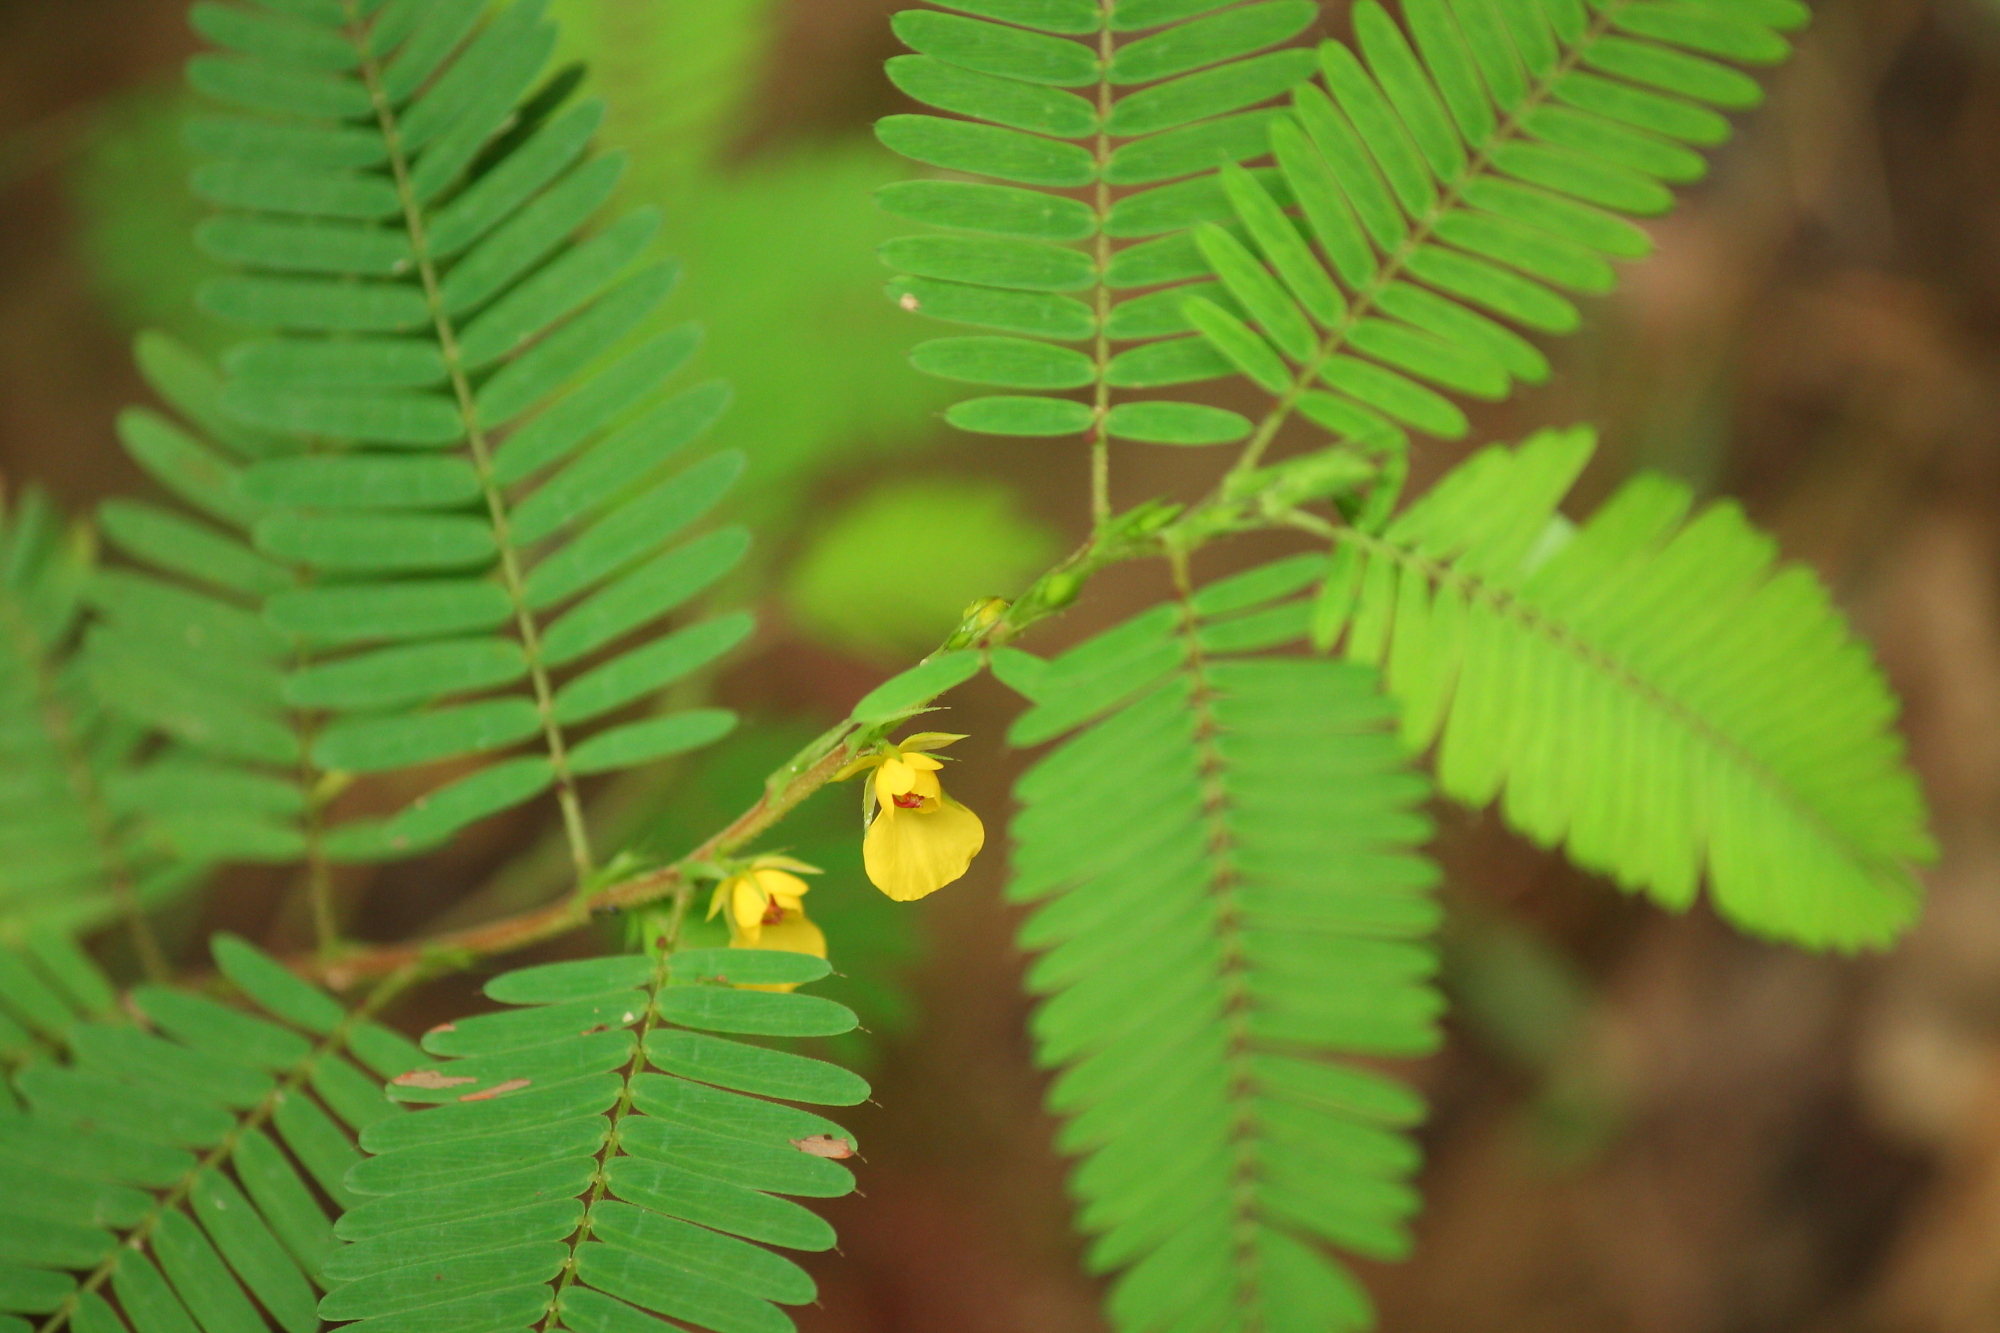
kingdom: Plantae
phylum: Tracheophyta
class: Magnoliopsida
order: Fabales
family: Fabaceae
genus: Chamaecrista
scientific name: Chamaecrista nictitans
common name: Sensitive cassia
